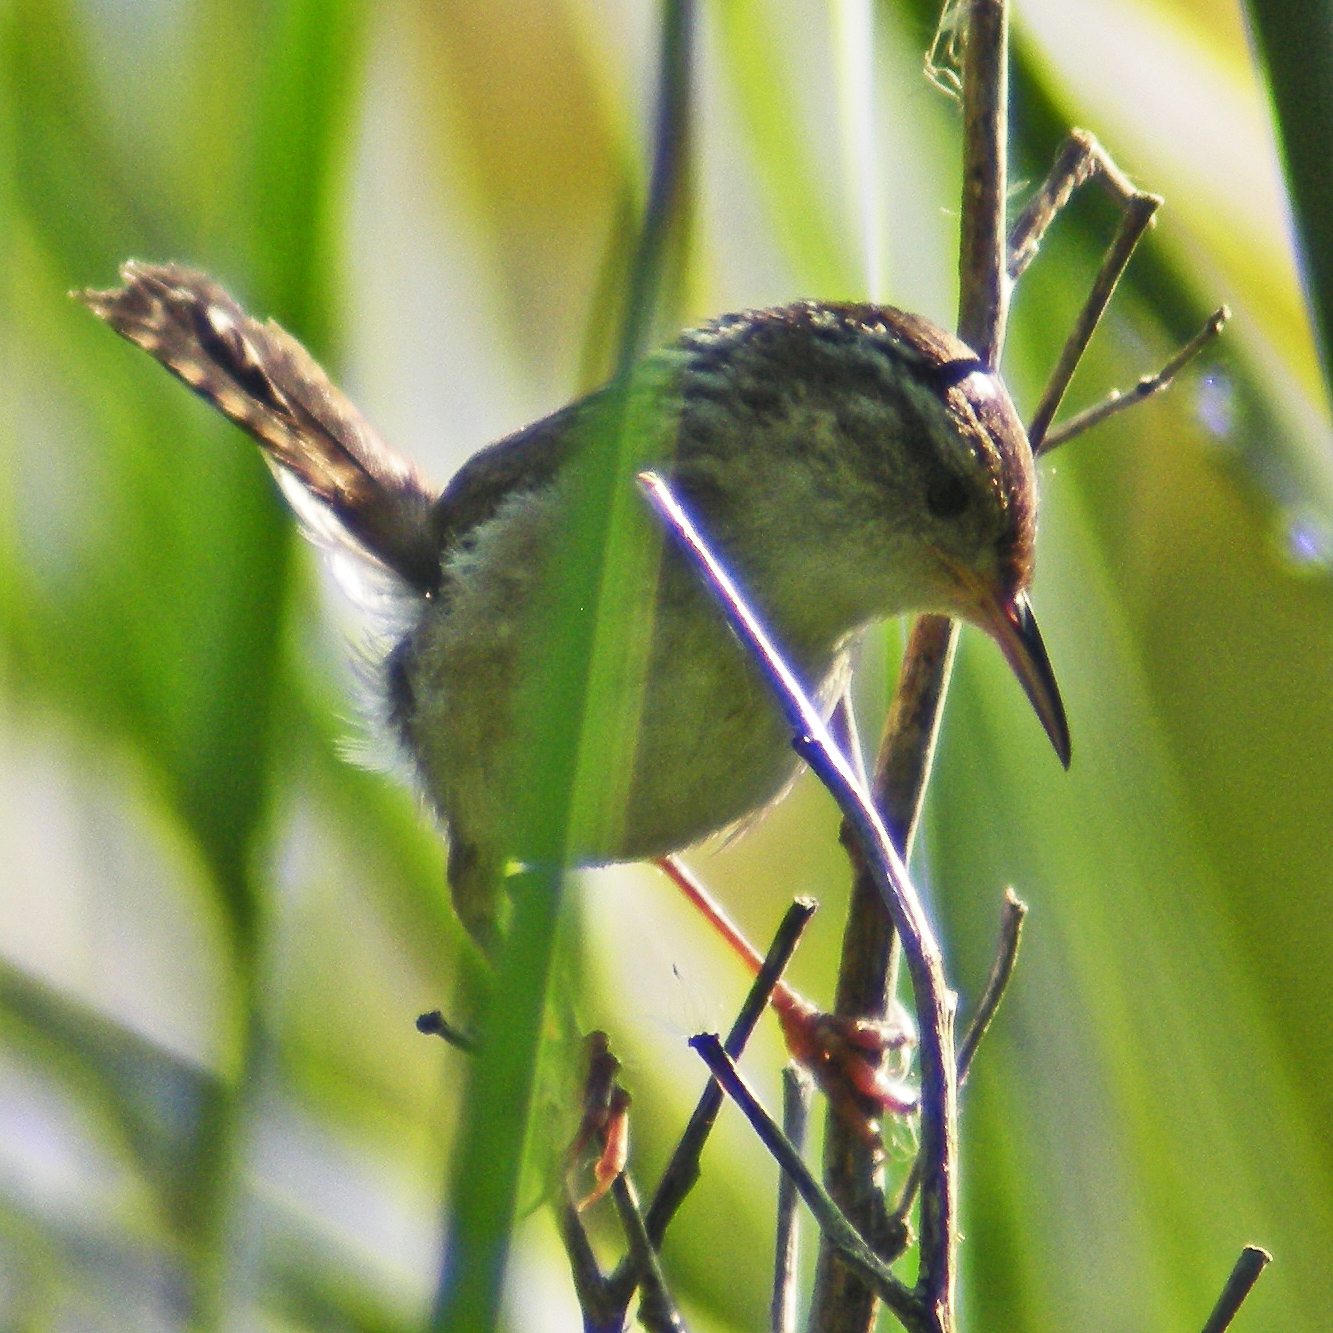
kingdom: Animalia
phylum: Chordata
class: Aves
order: Passeriformes
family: Troglodytidae
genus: Cistothorus
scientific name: Cistothorus palustris
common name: Marsh wren
